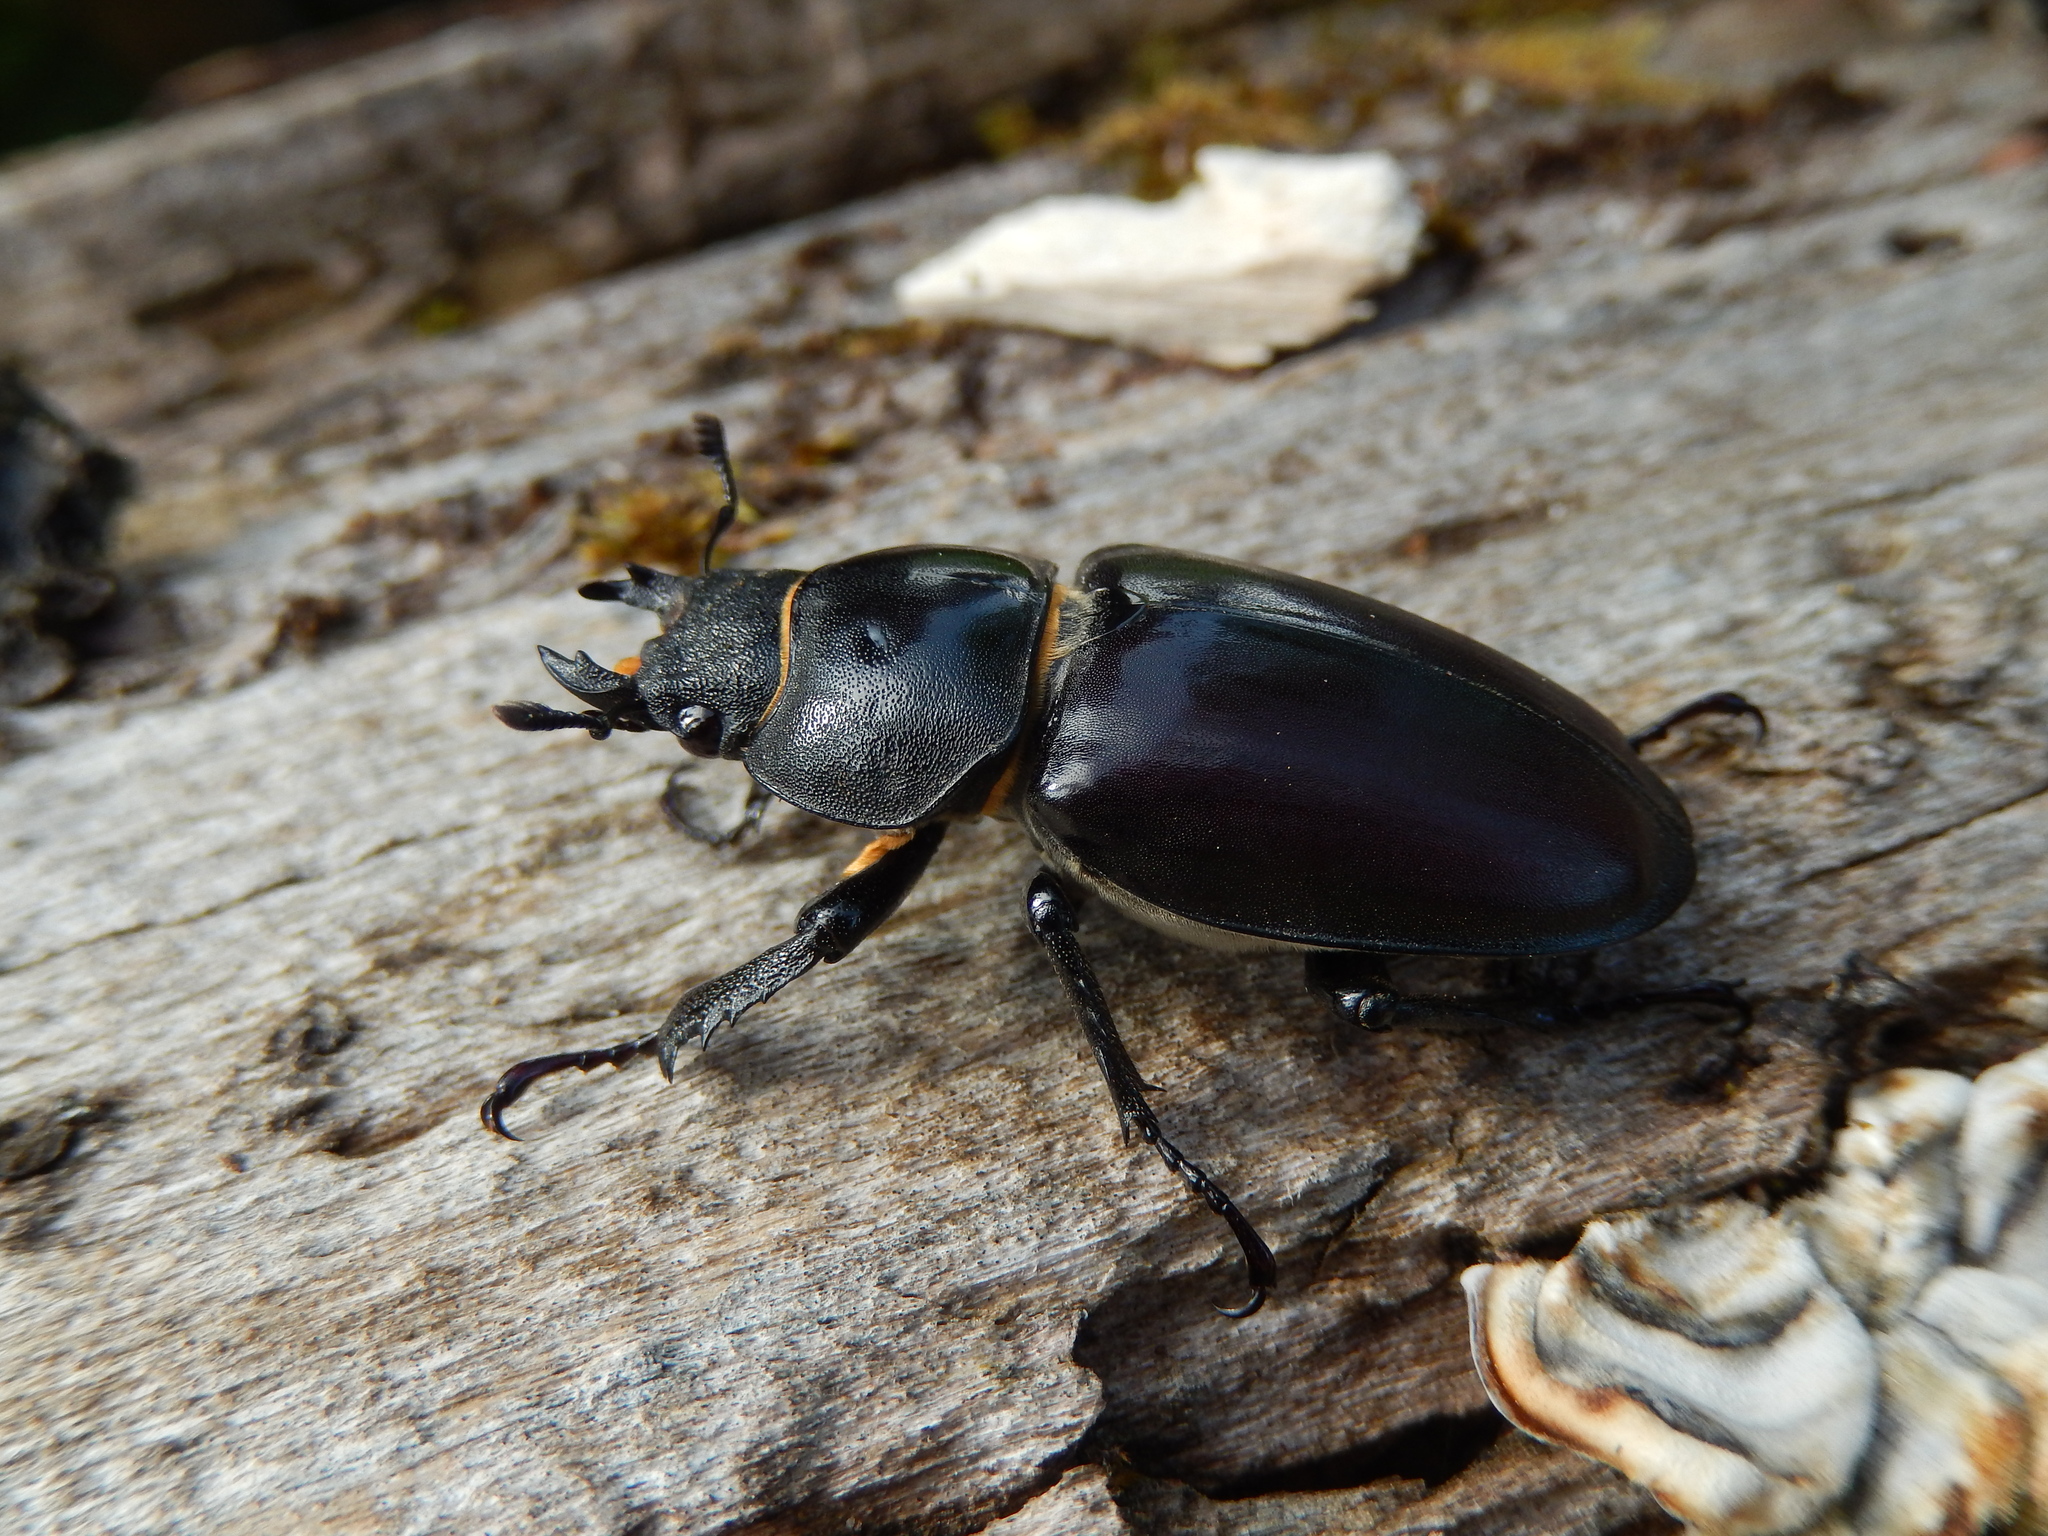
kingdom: Animalia
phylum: Arthropoda
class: Insecta
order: Coleoptera
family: Lucanidae
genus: Lucanus
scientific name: Lucanus cervus
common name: Stag beetle
